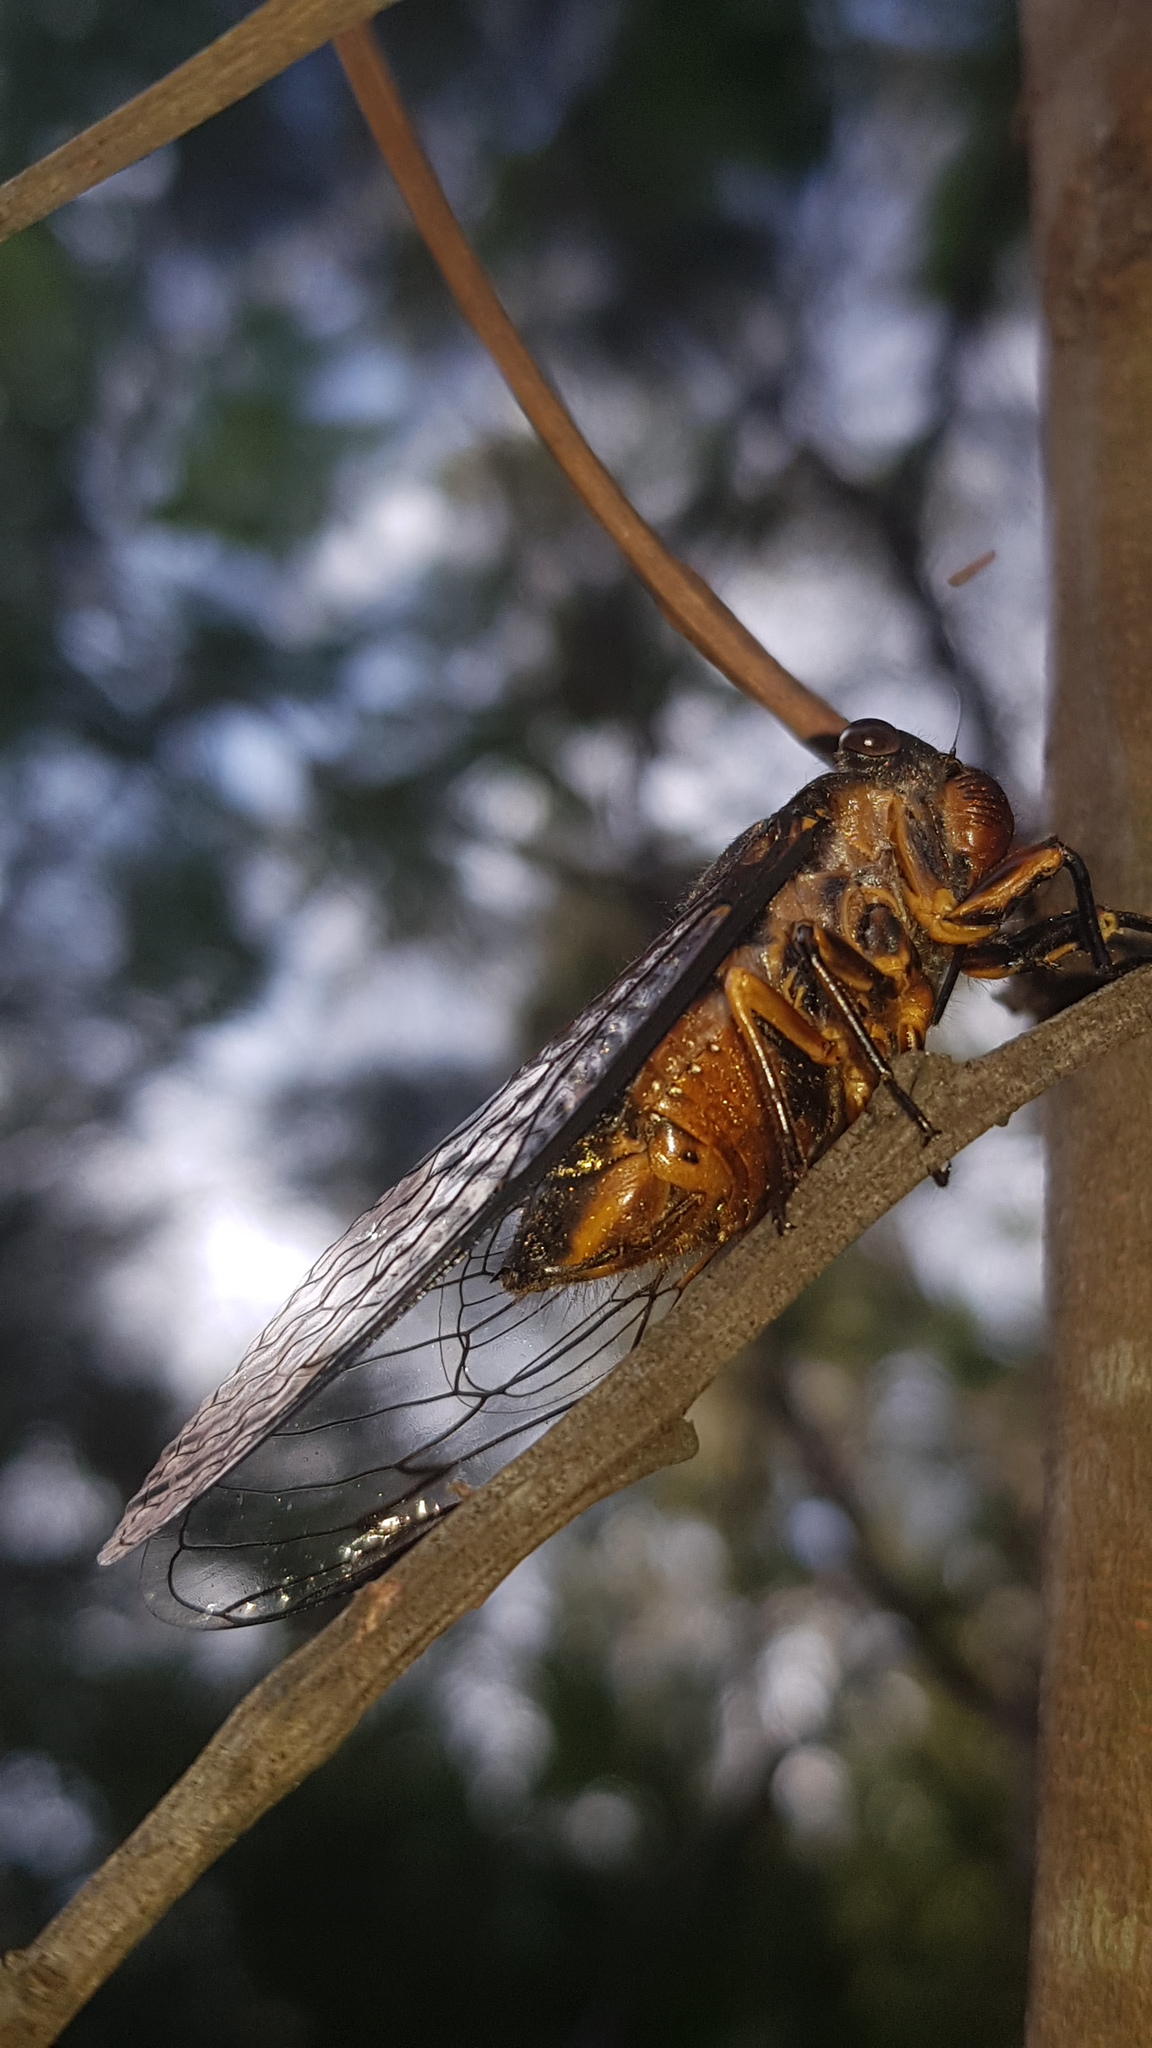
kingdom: Animalia
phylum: Arthropoda
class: Insecta
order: Hemiptera
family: Cicadidae
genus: Psaltoda
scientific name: Psaltoda plaga
